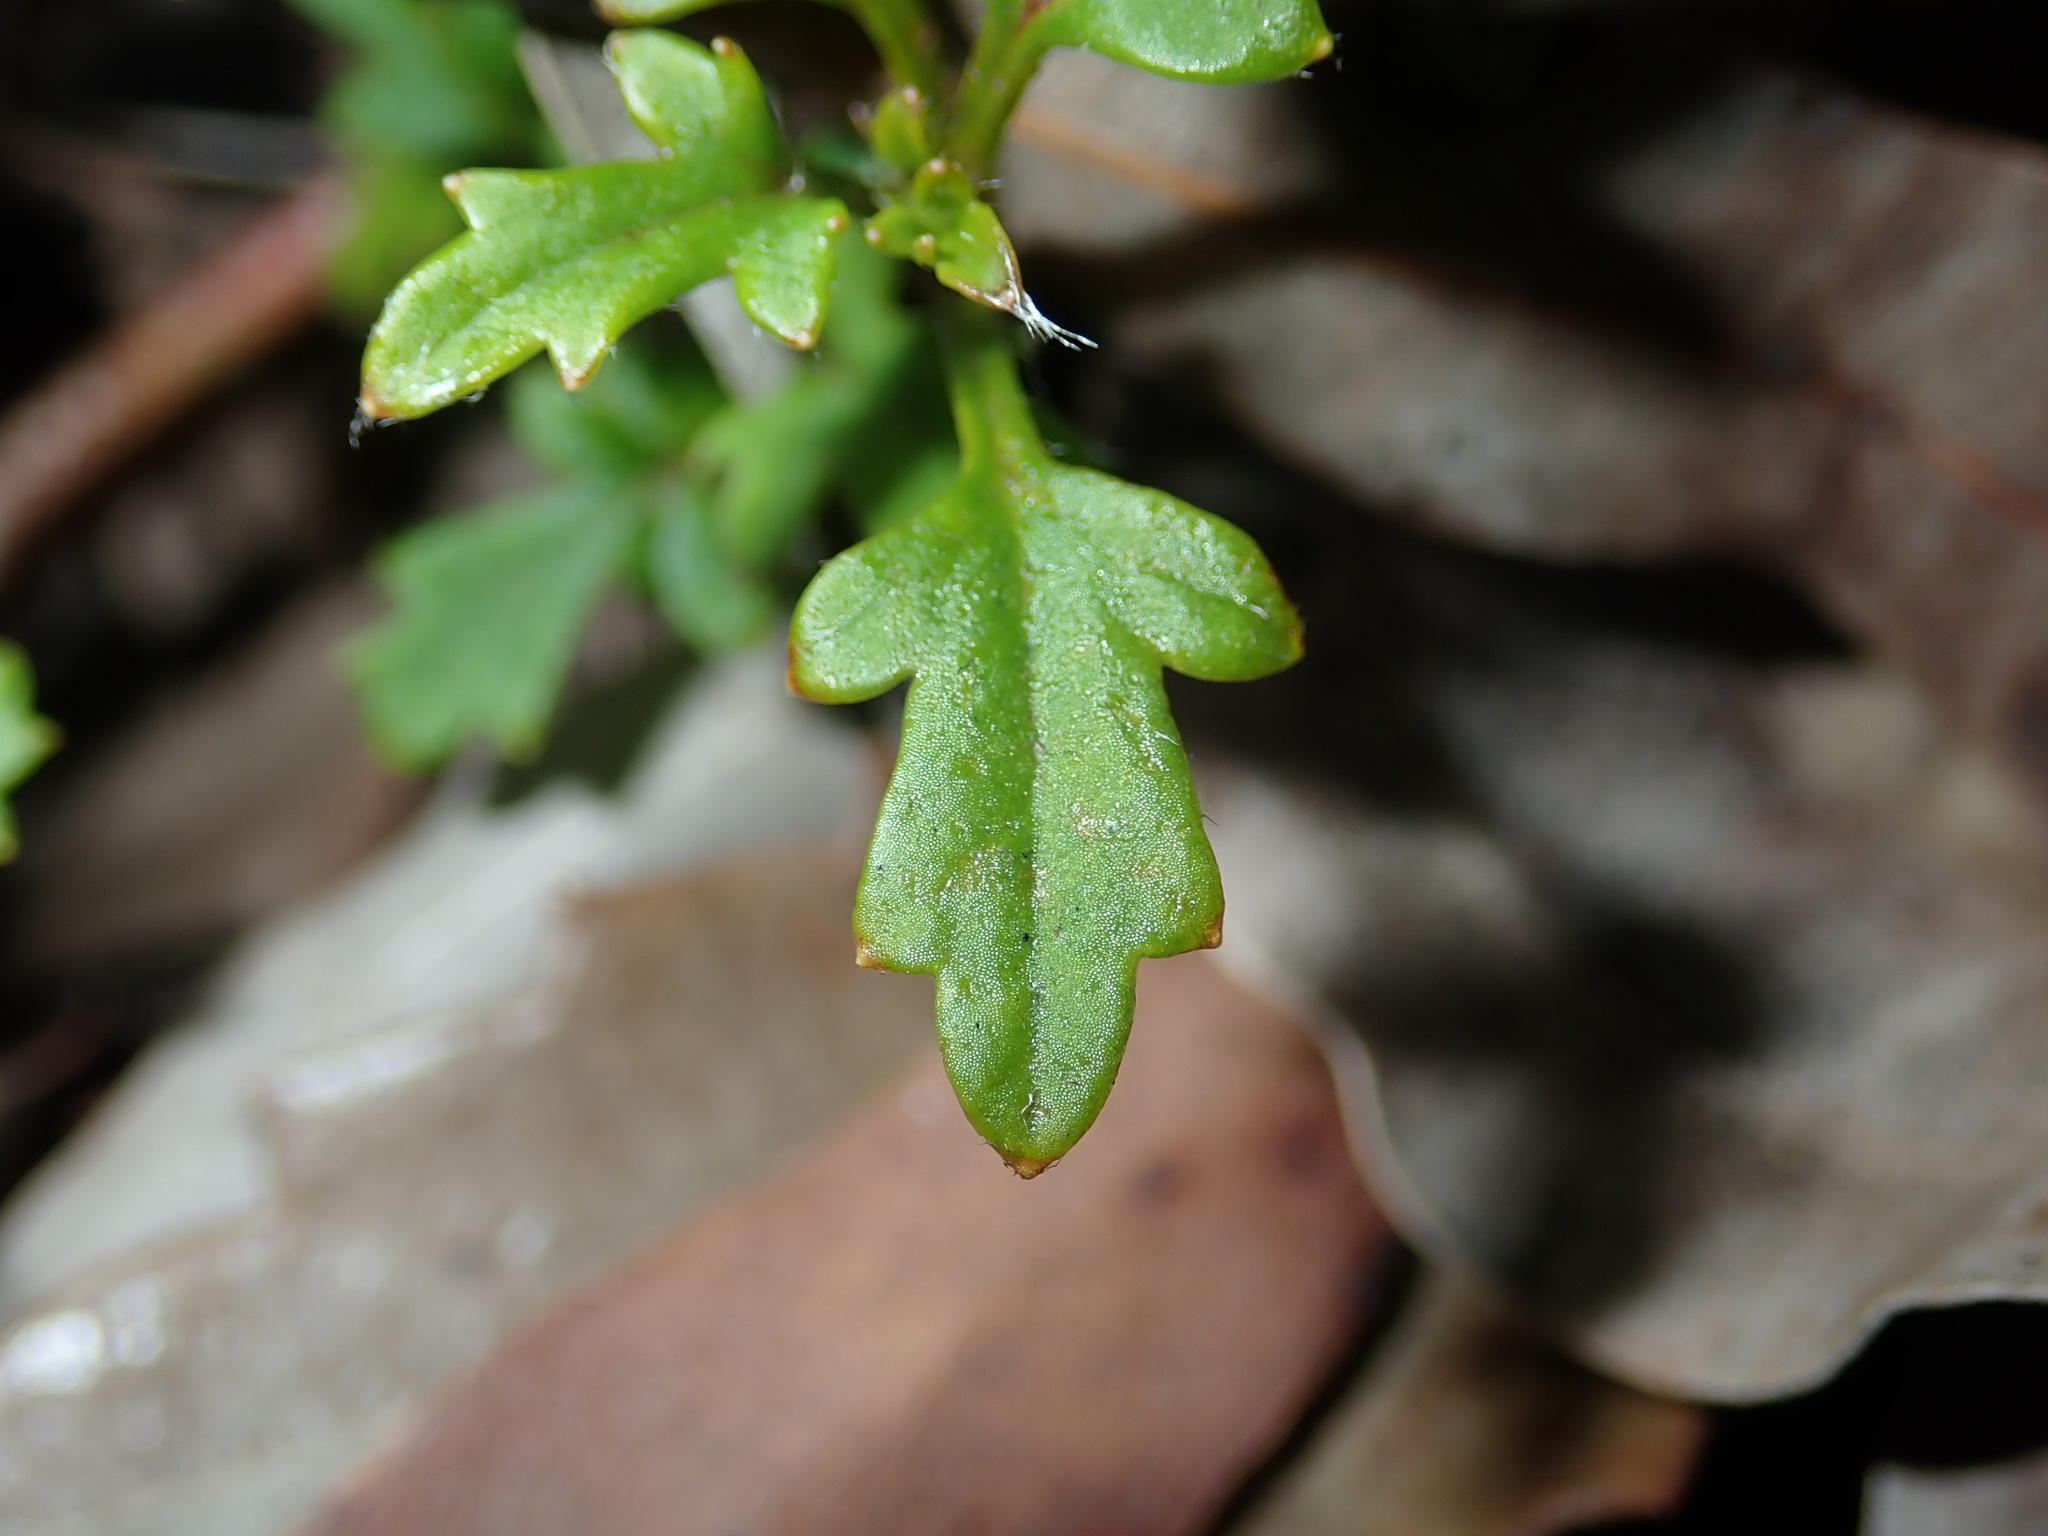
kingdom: Plantae
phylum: Tracheophyta
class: Magnoliopsida
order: Apiales
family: Apiaceae
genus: Xanthosia
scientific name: Xanthosia pilosa
